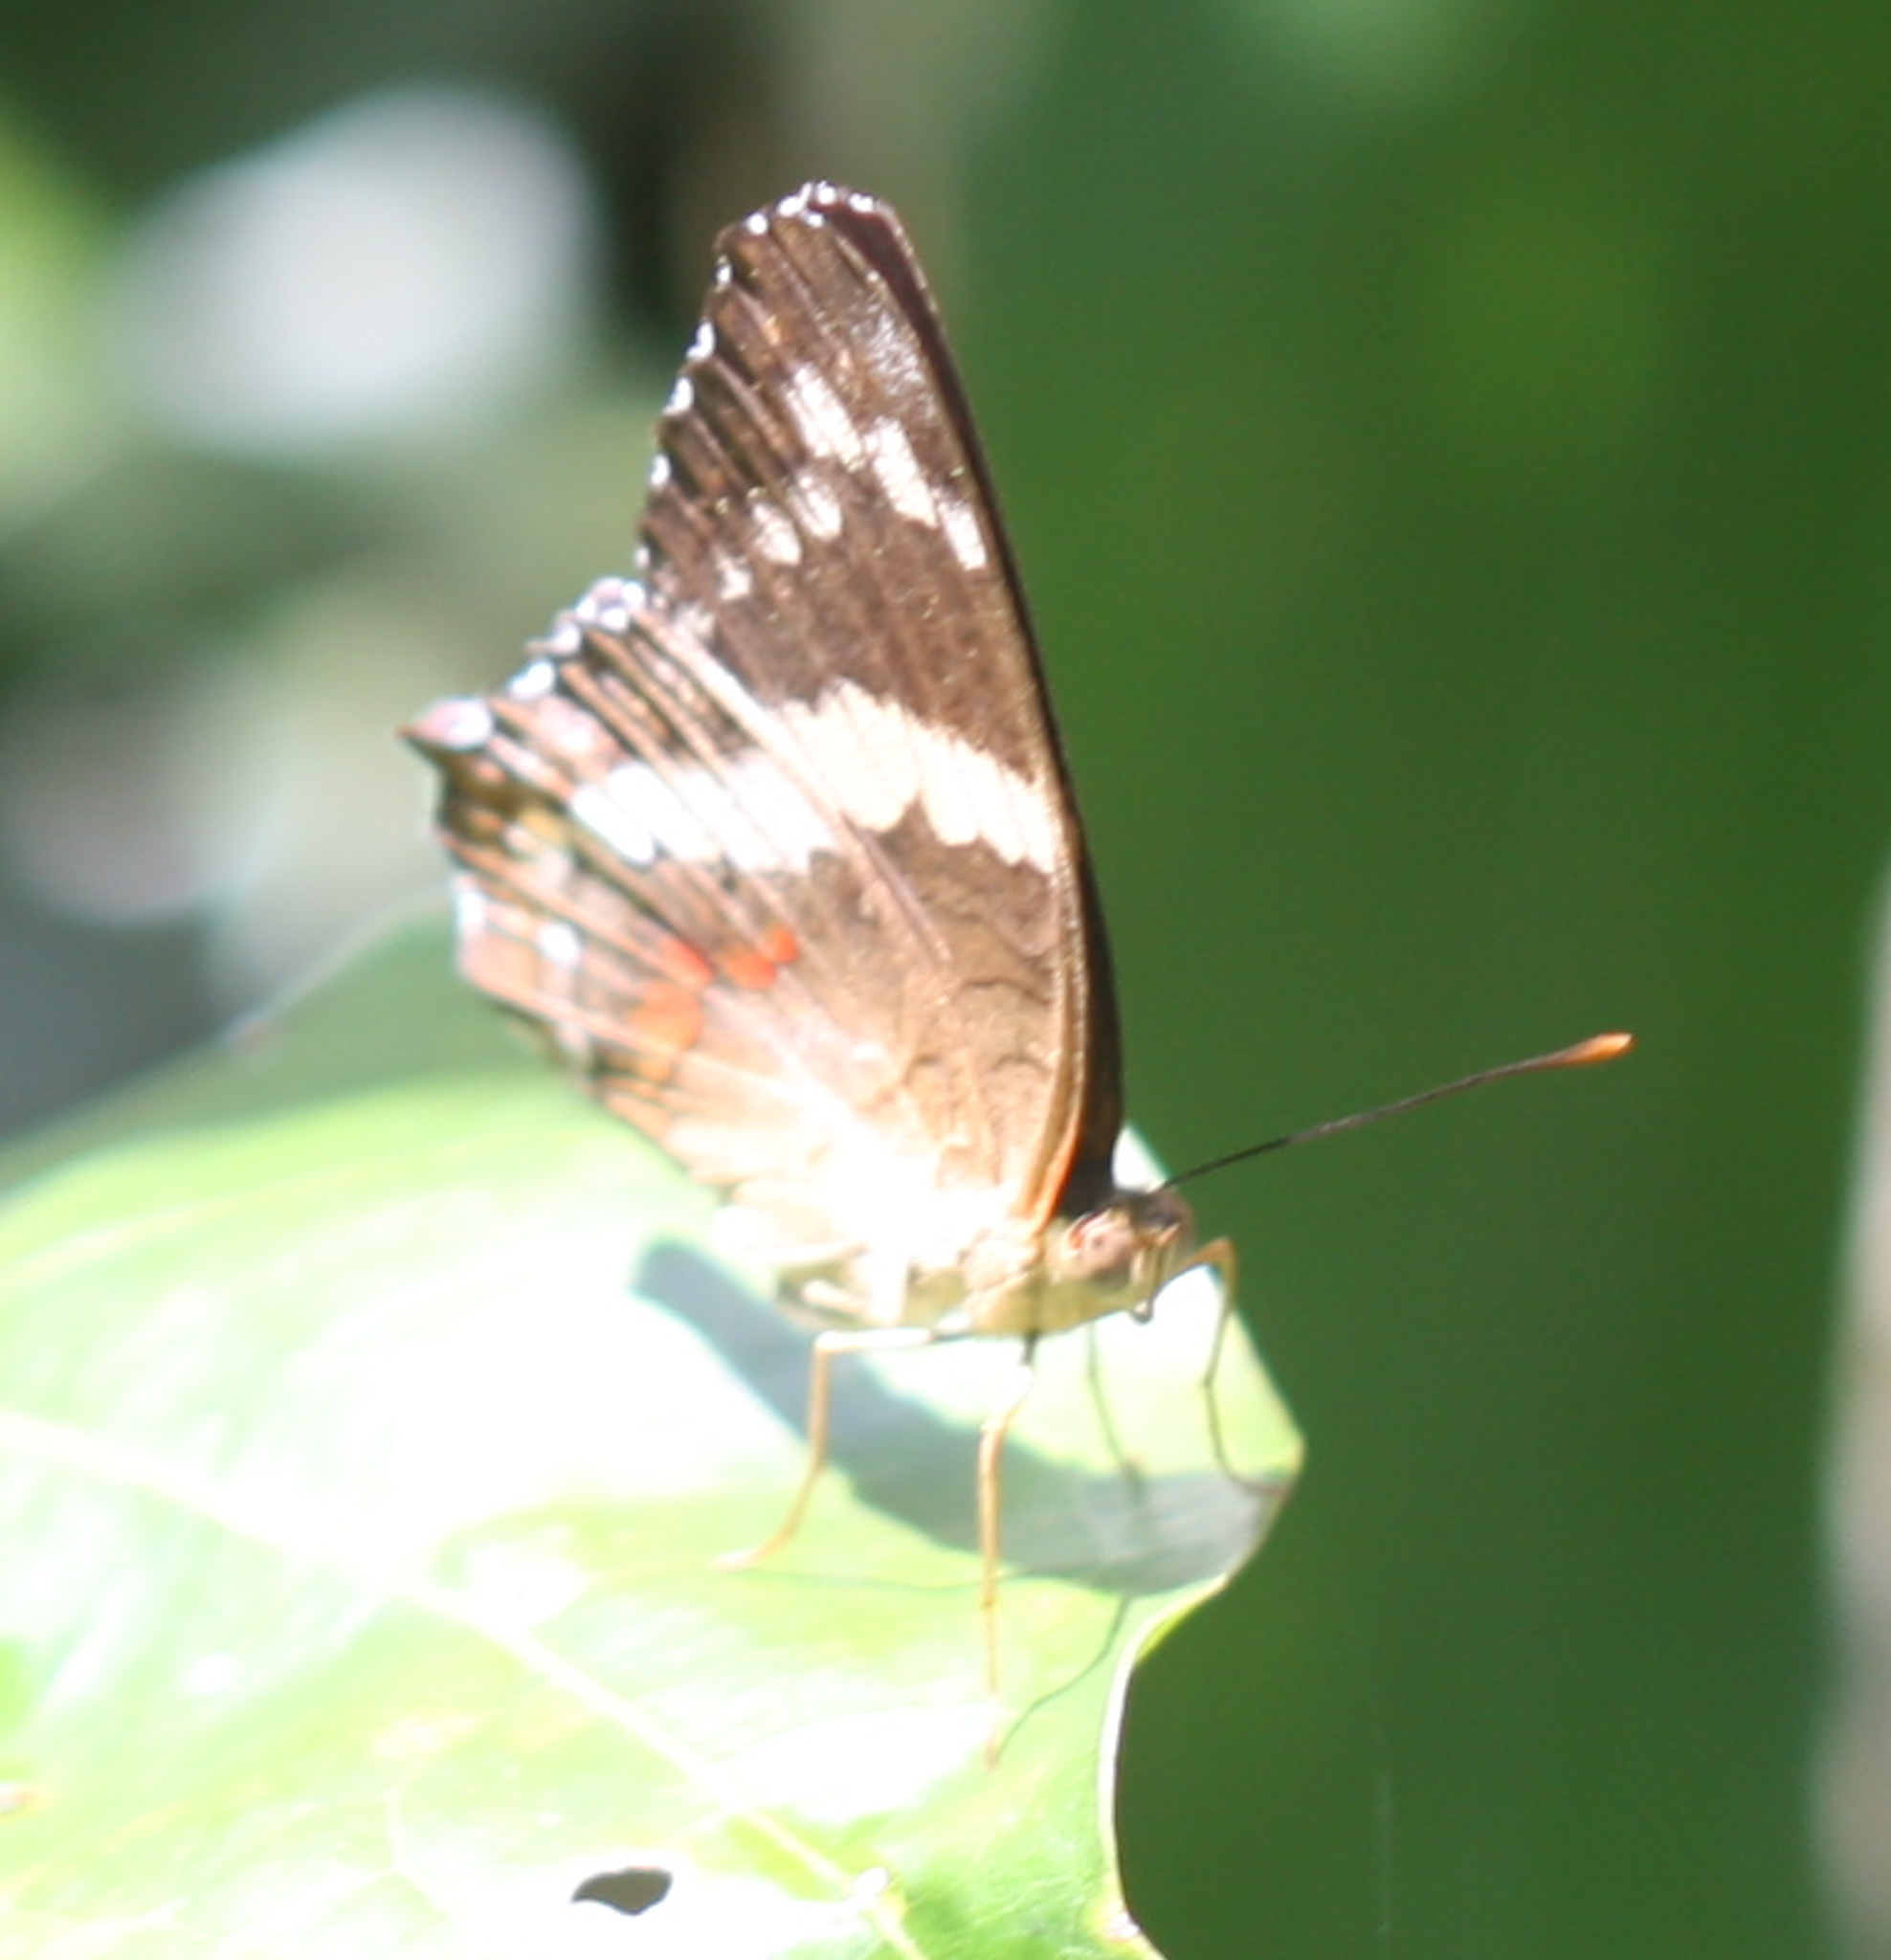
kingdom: Animalia
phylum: Arthropoda
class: Insecta
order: Lepidoptera
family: Nymphalidae
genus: Anartia
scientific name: Anartia fatima
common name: Banded peacock
